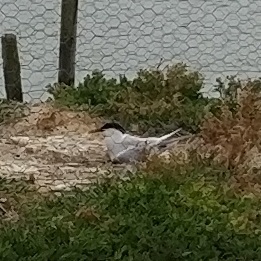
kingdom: Animalia
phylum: Chordata
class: Aves
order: Charadriiformes
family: Laridae
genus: Thalasseus
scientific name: Thalasseus sandvicensis
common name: Sandwich tern
